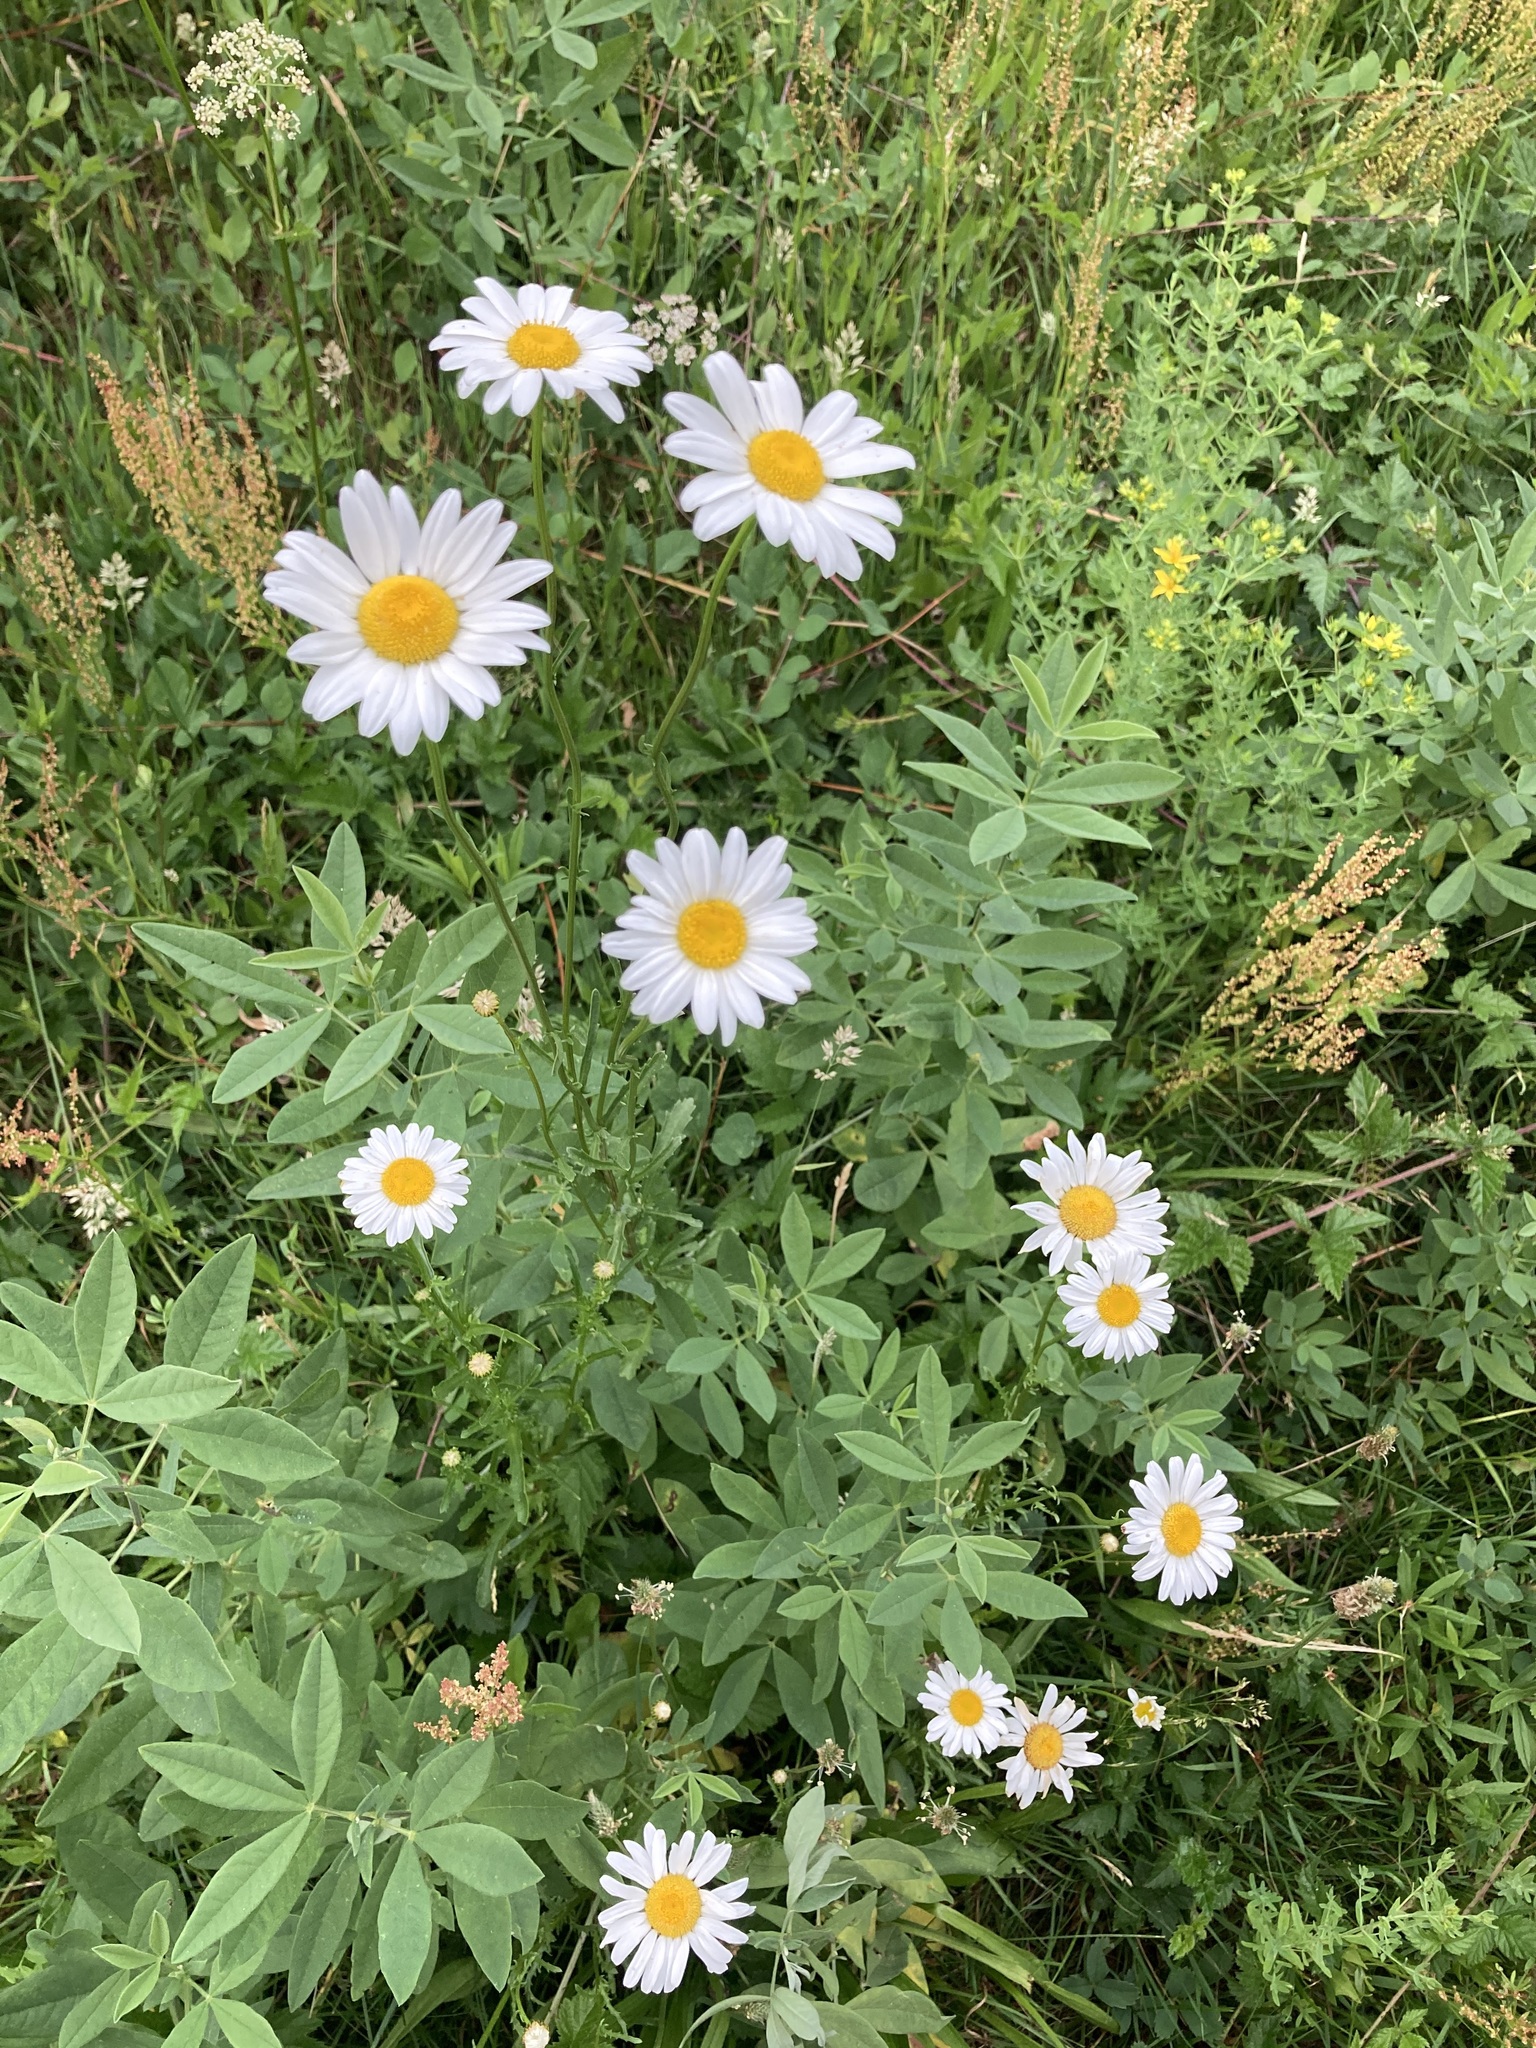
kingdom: Plantae
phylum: Tracheophyta
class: Magnoliopsida
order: Asterales
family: Asteraceae
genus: Leucanthemum
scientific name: Leucanthemum vulgare
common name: Oxeye daisy
